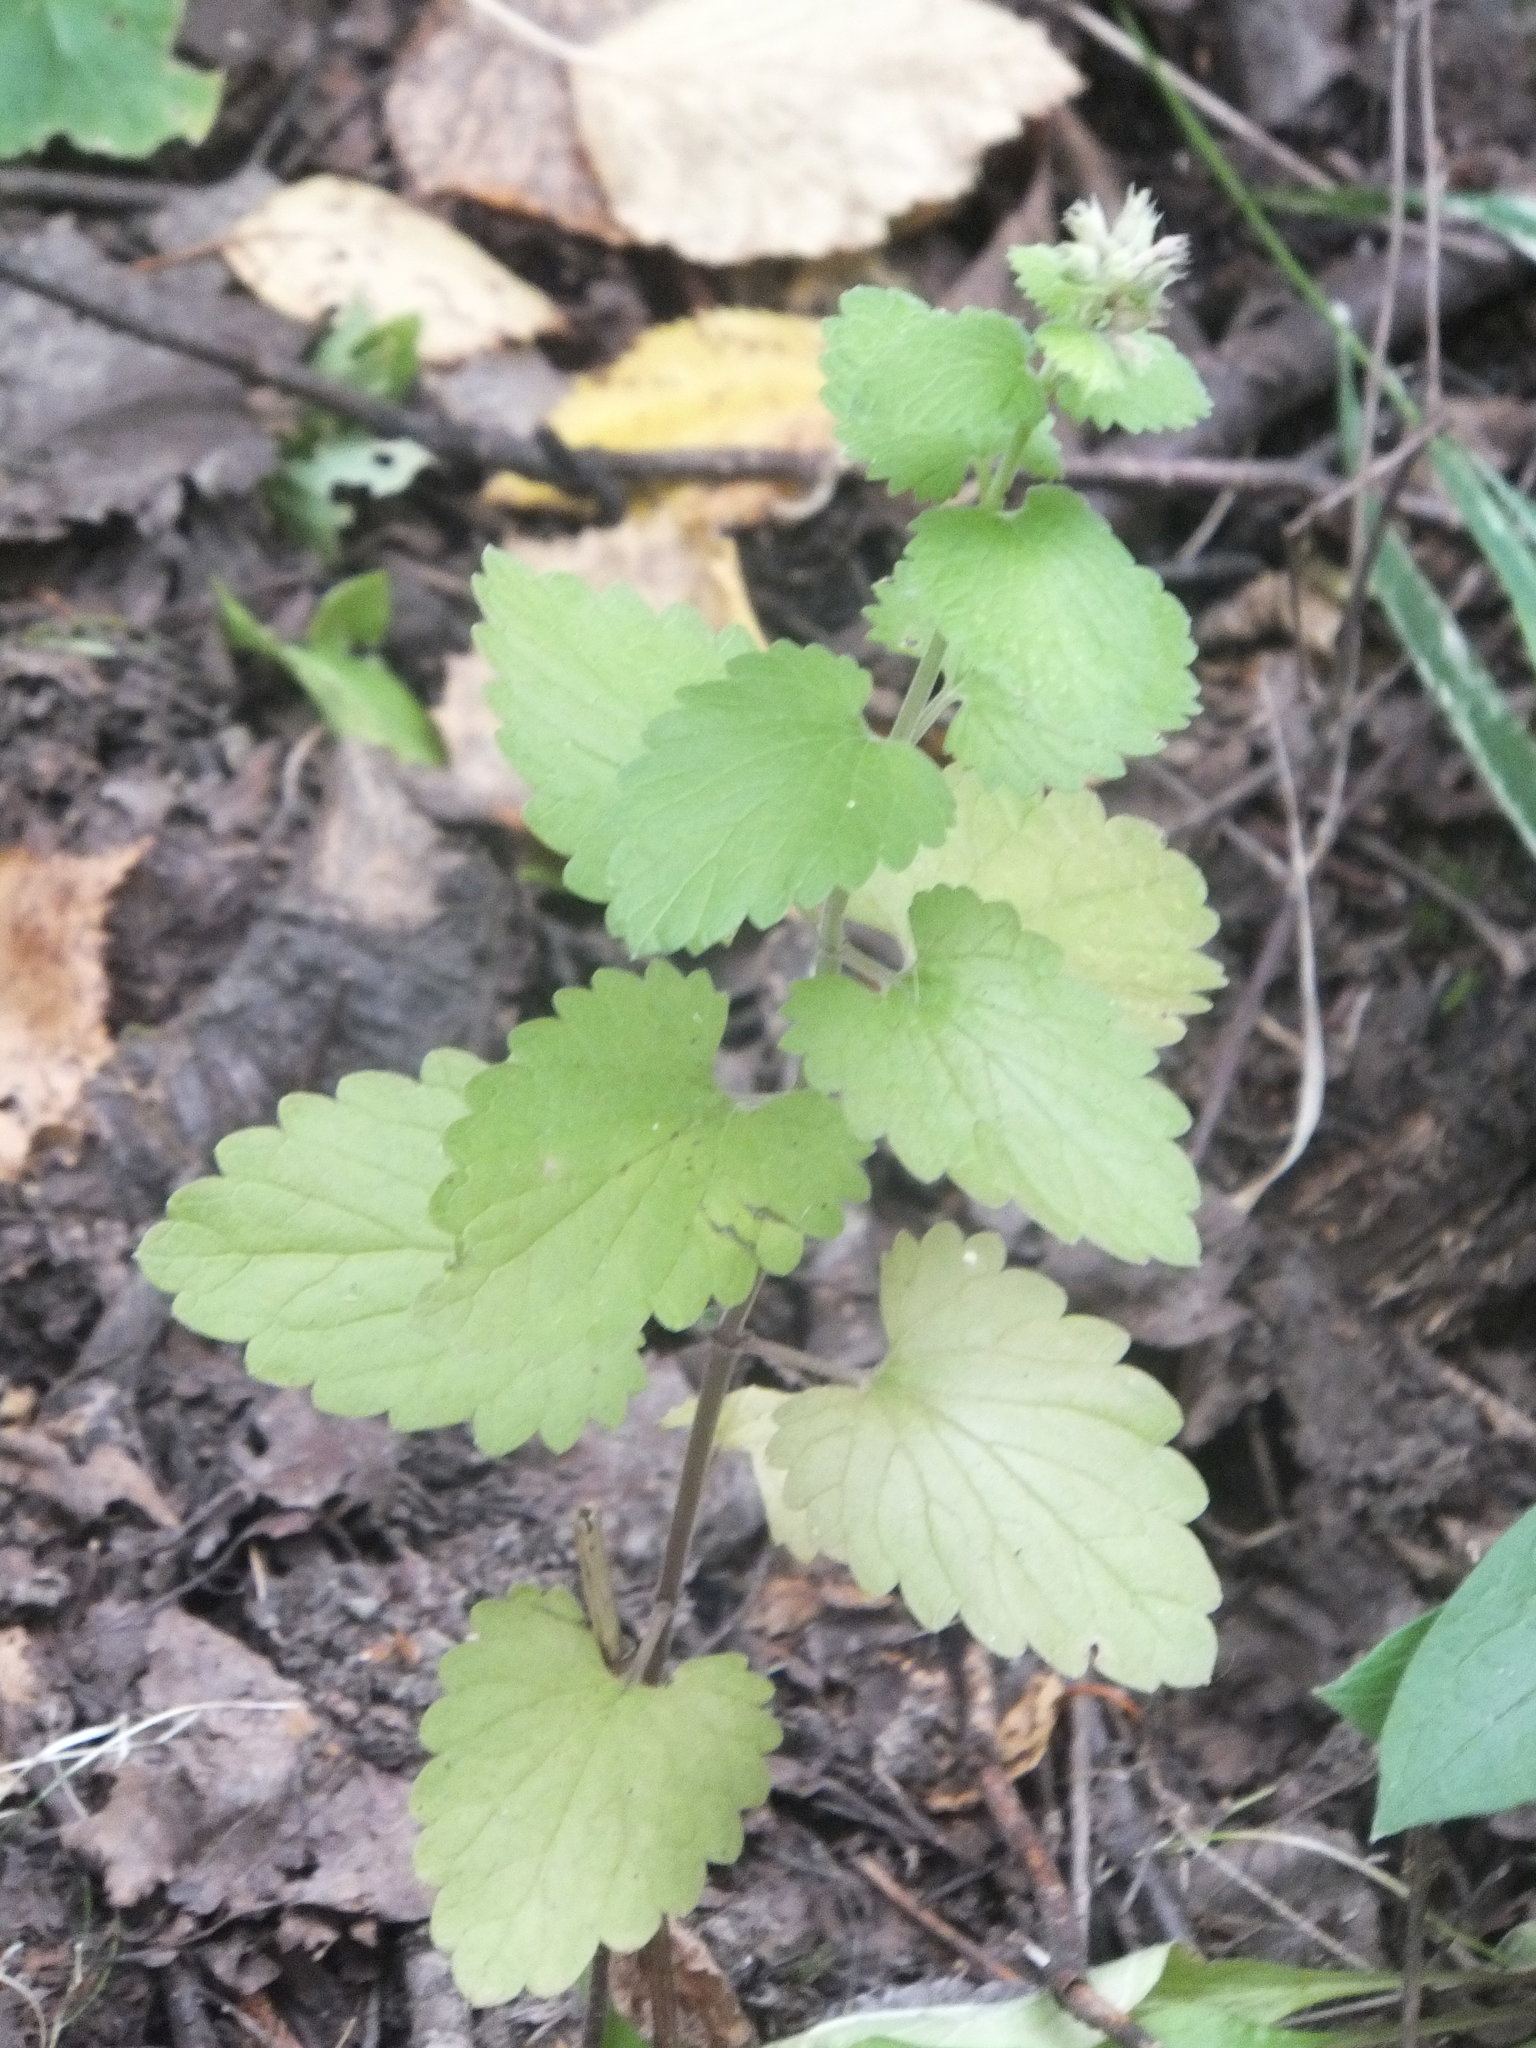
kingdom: Plantae
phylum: Tracheophyta
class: Magnoliopsida
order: Lamiales
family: Lamiaceae
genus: Nepeta
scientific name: Nepeta cataria
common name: Catnip
